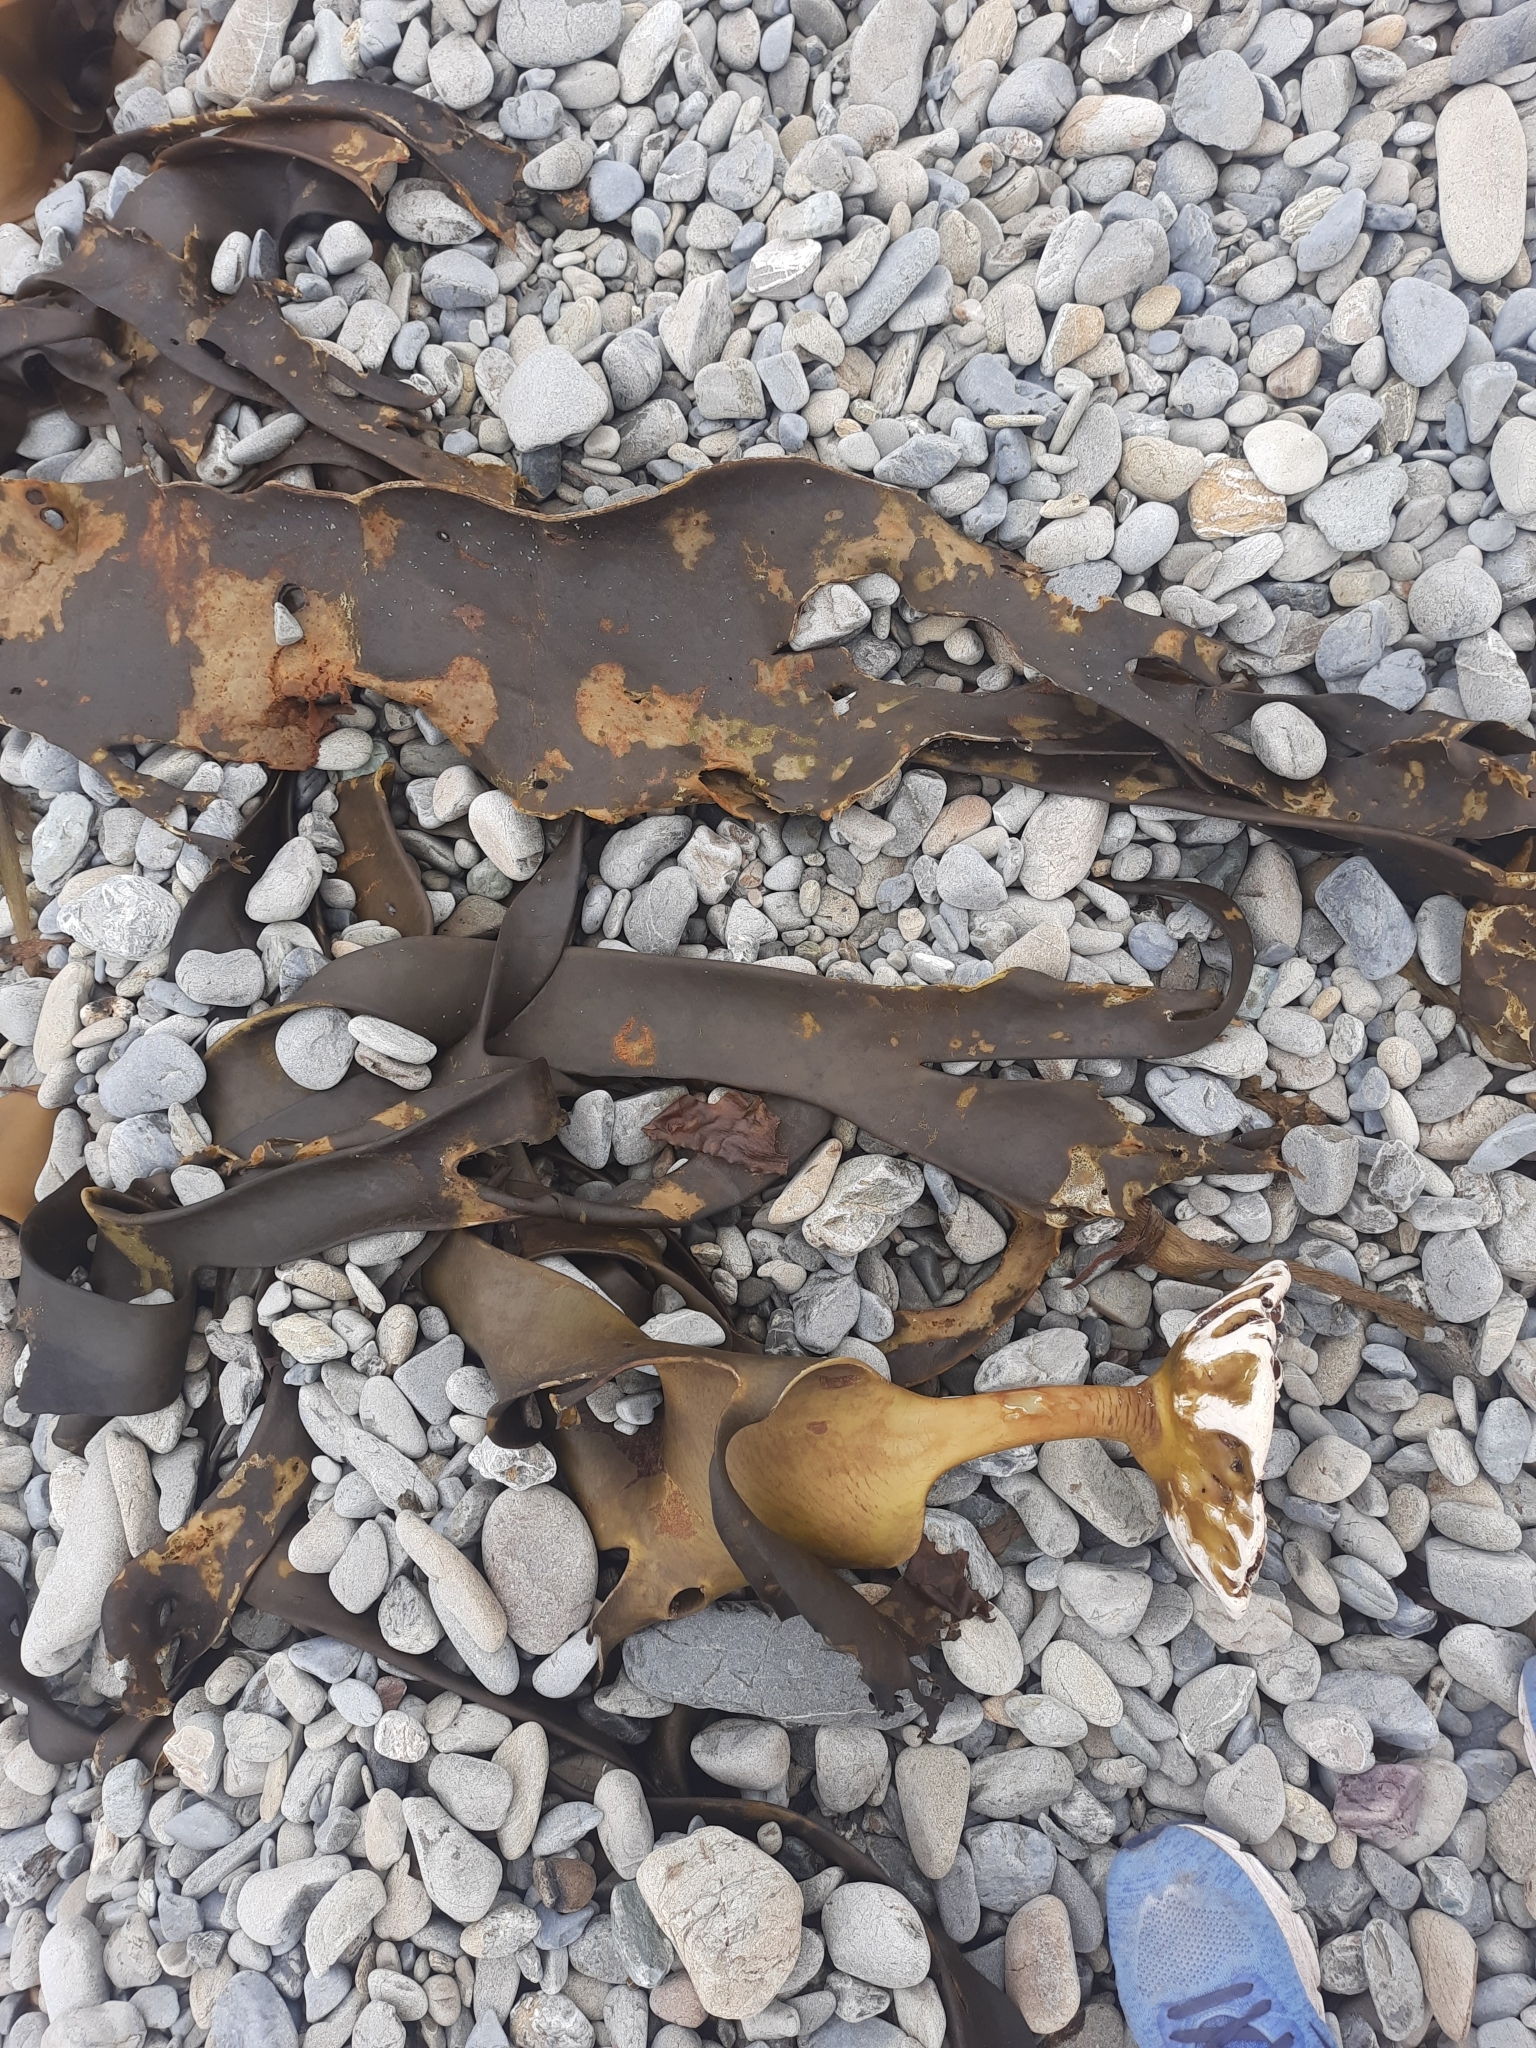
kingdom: Chromista
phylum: Ochrophyta
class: Phaeophyceae
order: Fucales
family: Durvillaeaceae
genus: Durvillaea
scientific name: Durvillaea antarctica
